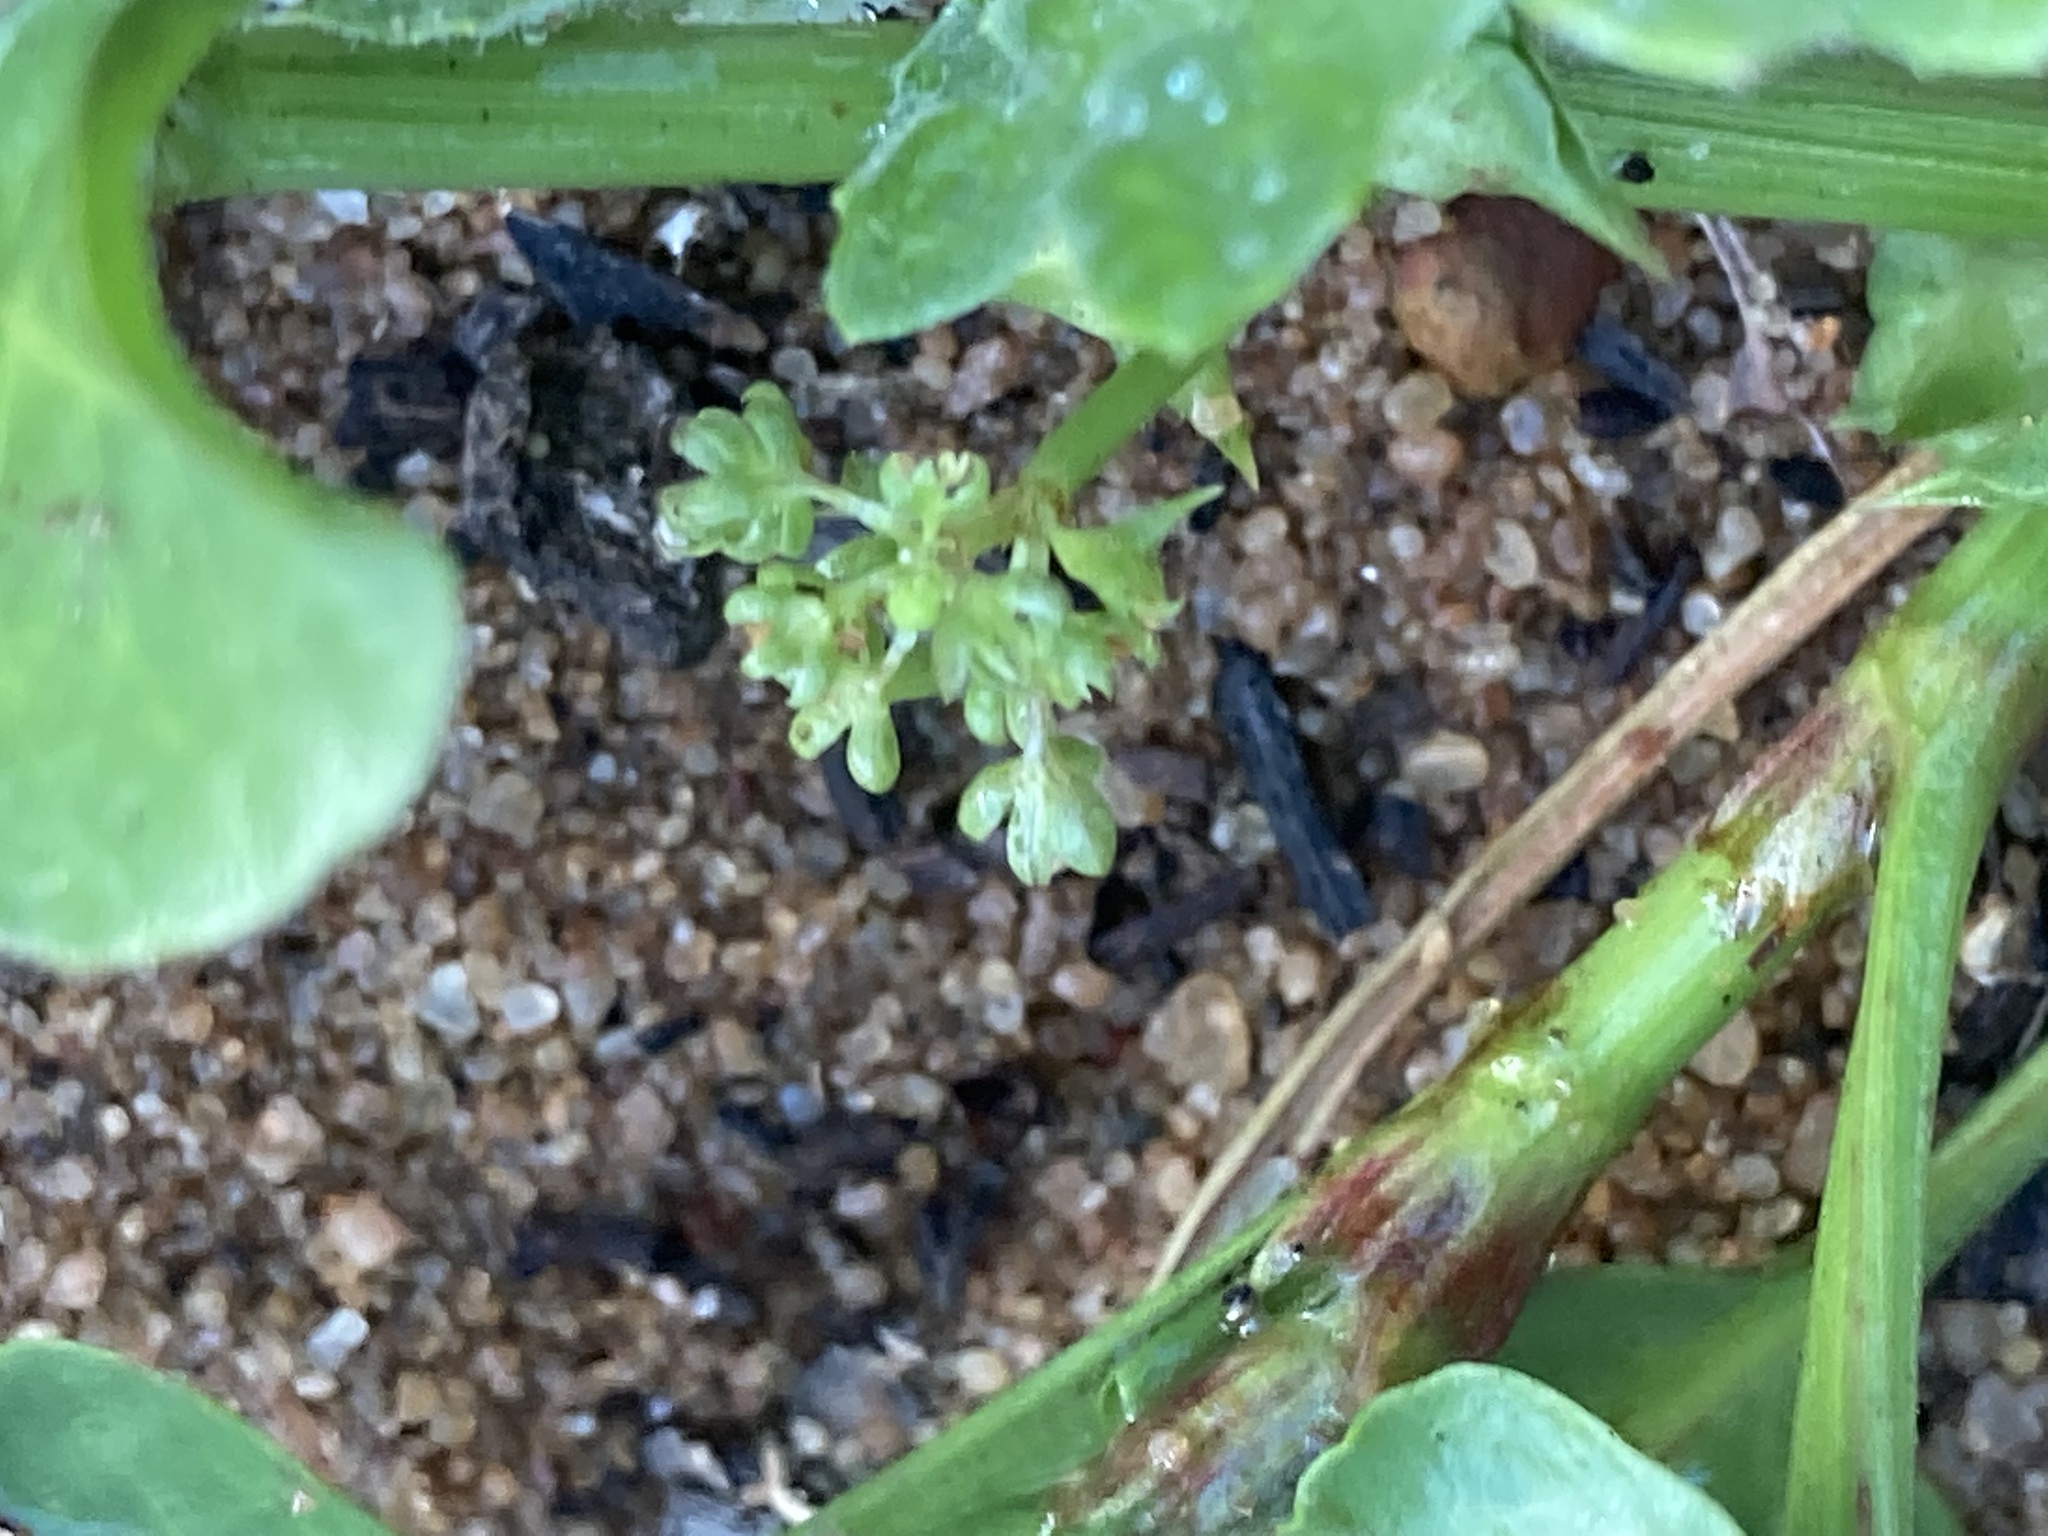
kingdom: Plantae
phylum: Tracheophyta
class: Magnoliopsida
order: Caryophyllales
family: Polygonaceae
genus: Rumex
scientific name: Rumex hypogaeus
